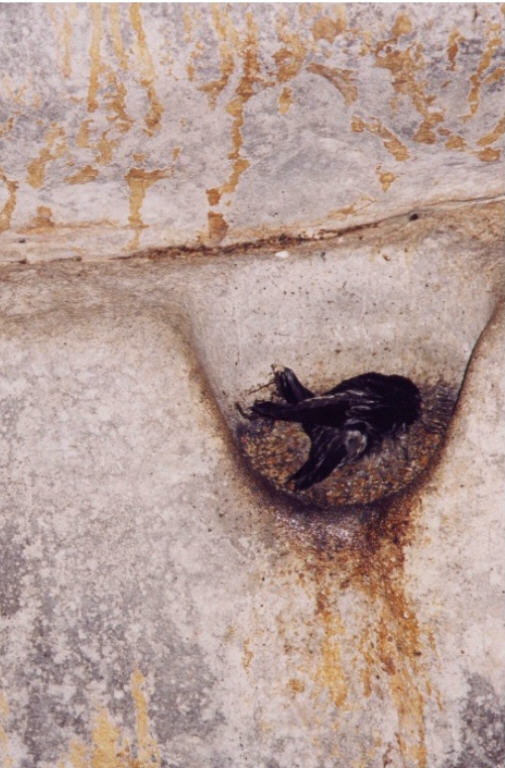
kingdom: Animalia
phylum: Chordata
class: Aves
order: Apodiformes
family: Apodidae
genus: Aerodramus
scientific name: Aerodramus salangana
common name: Mossy-nest swiftlet
